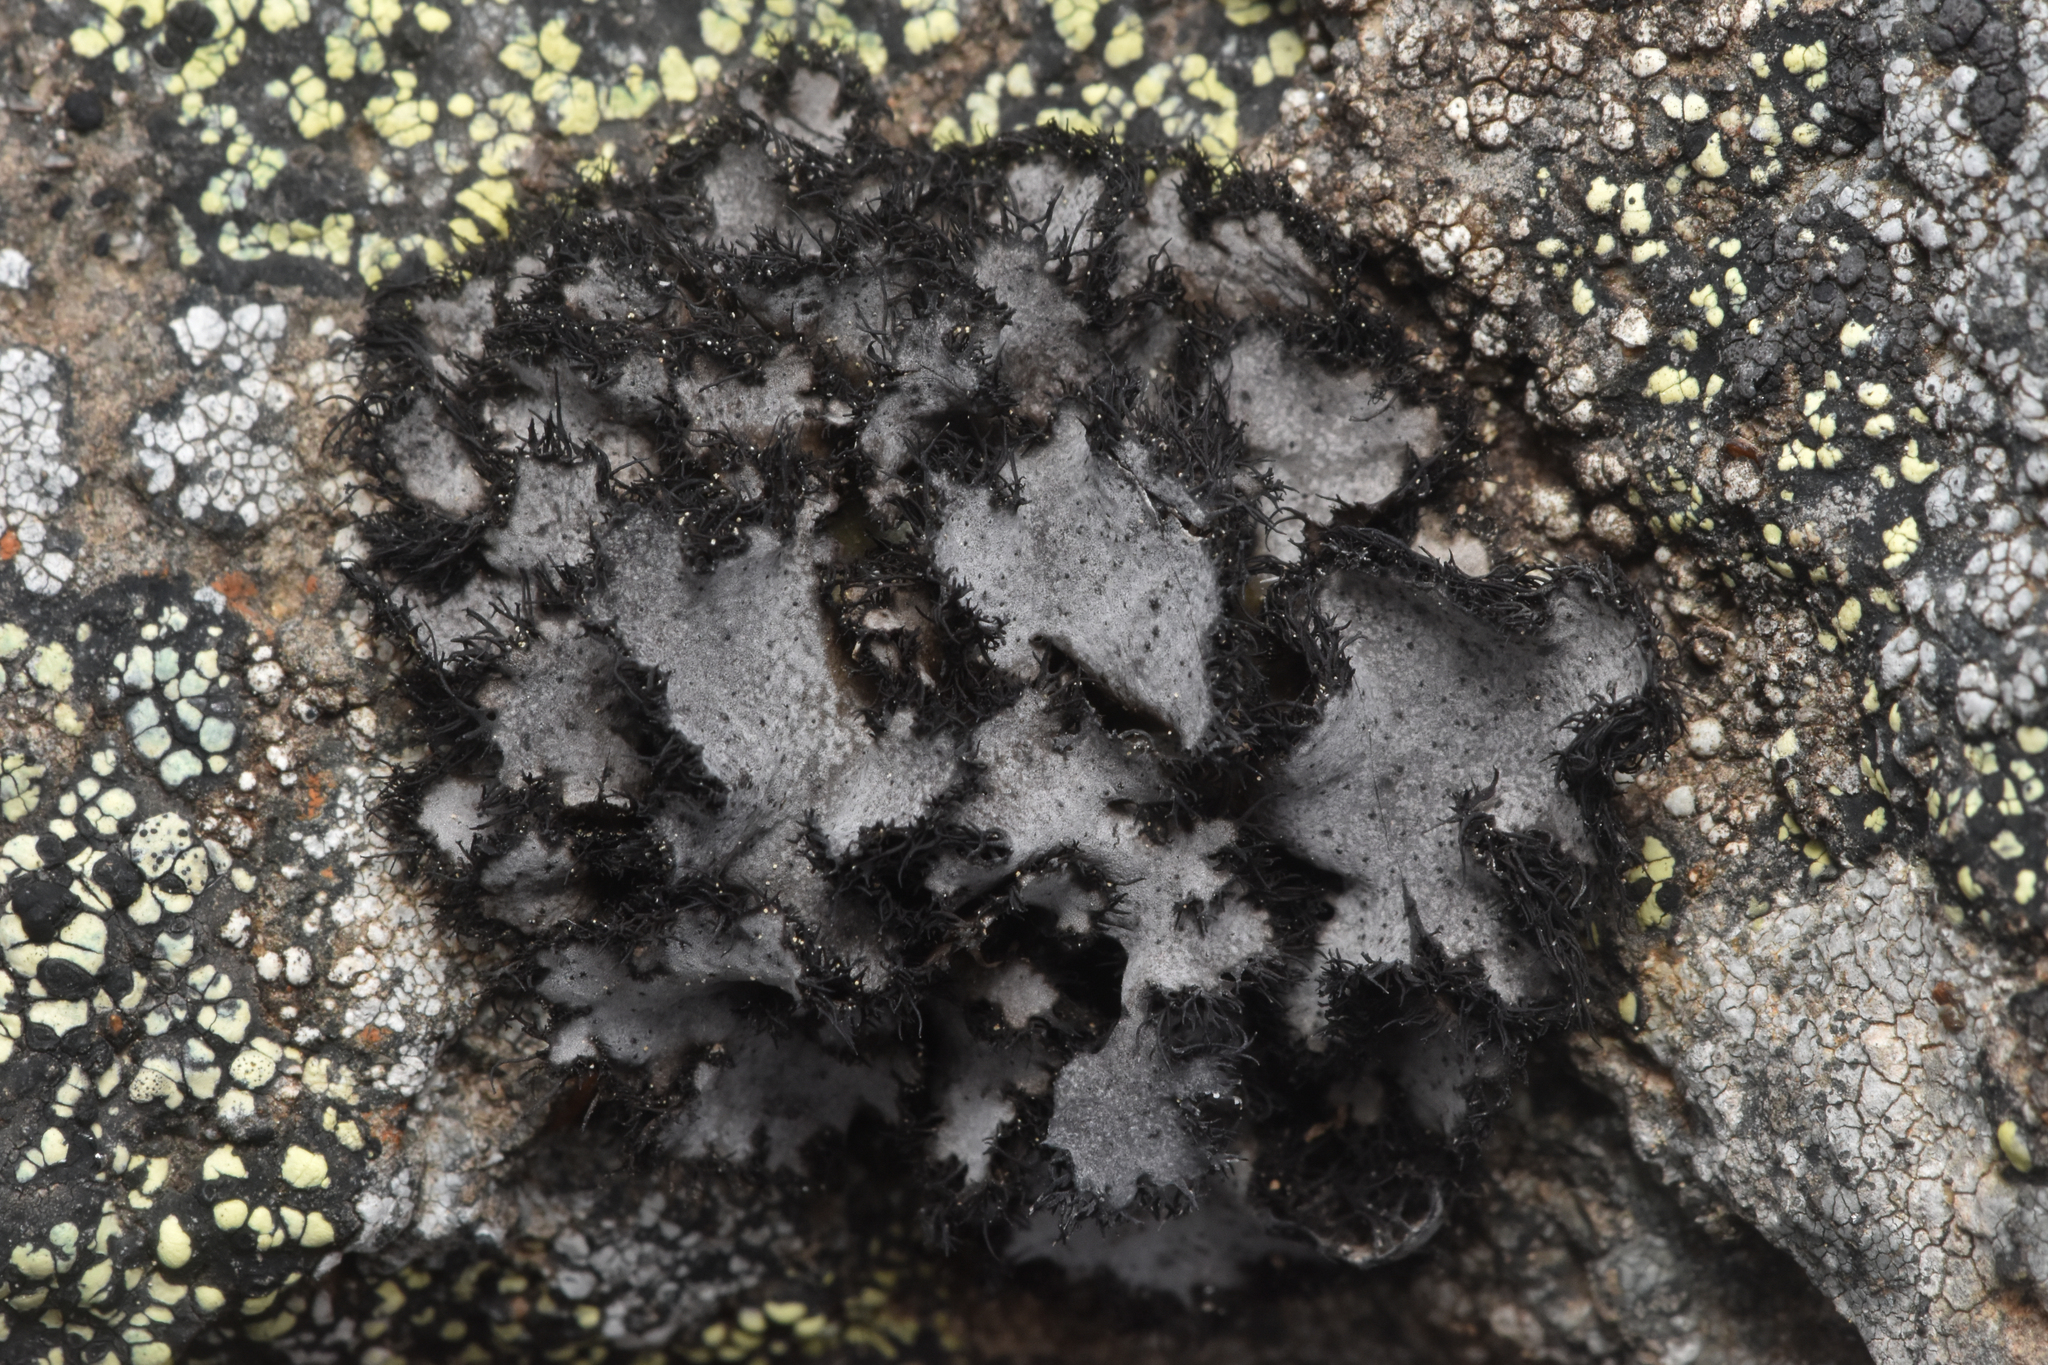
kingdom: Fungi
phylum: Ascomycota
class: Lecanoromycetes
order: Umbilicariales
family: Umbilicariaceae
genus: Umbilicaria
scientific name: Umbilicaria cylindrica
